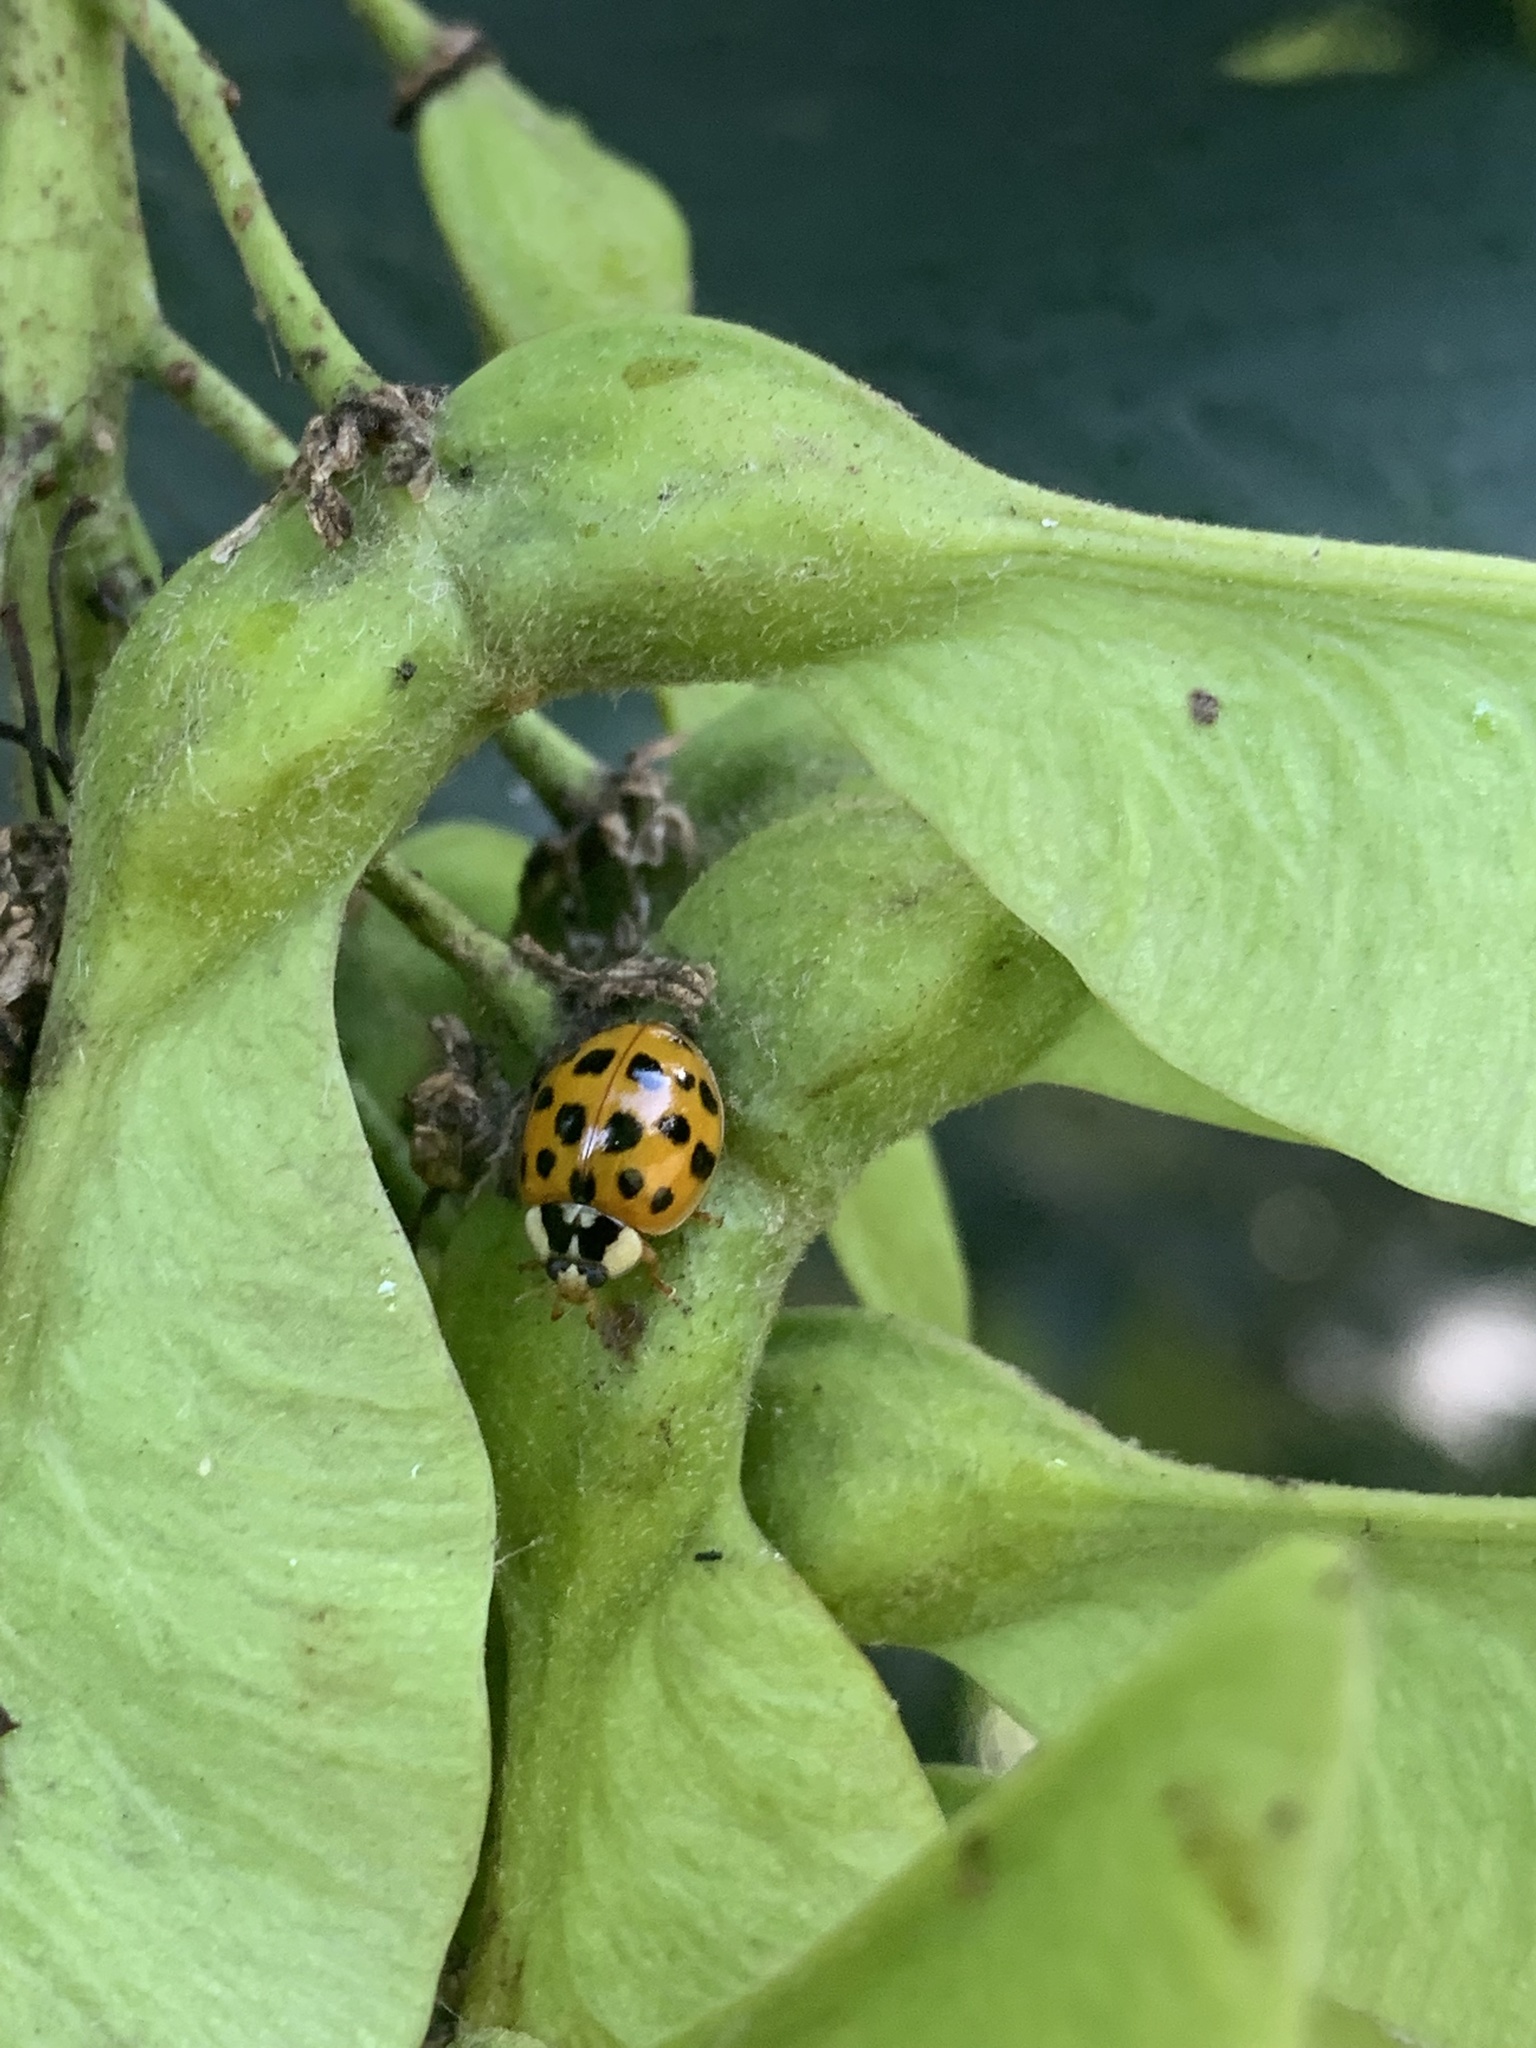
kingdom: Animalia
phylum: Arthropoda
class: Insecta
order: Coleoptera
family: Coccinellidae
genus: Harmonia
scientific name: Harmonia axyridis
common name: Harlequin ladybird
